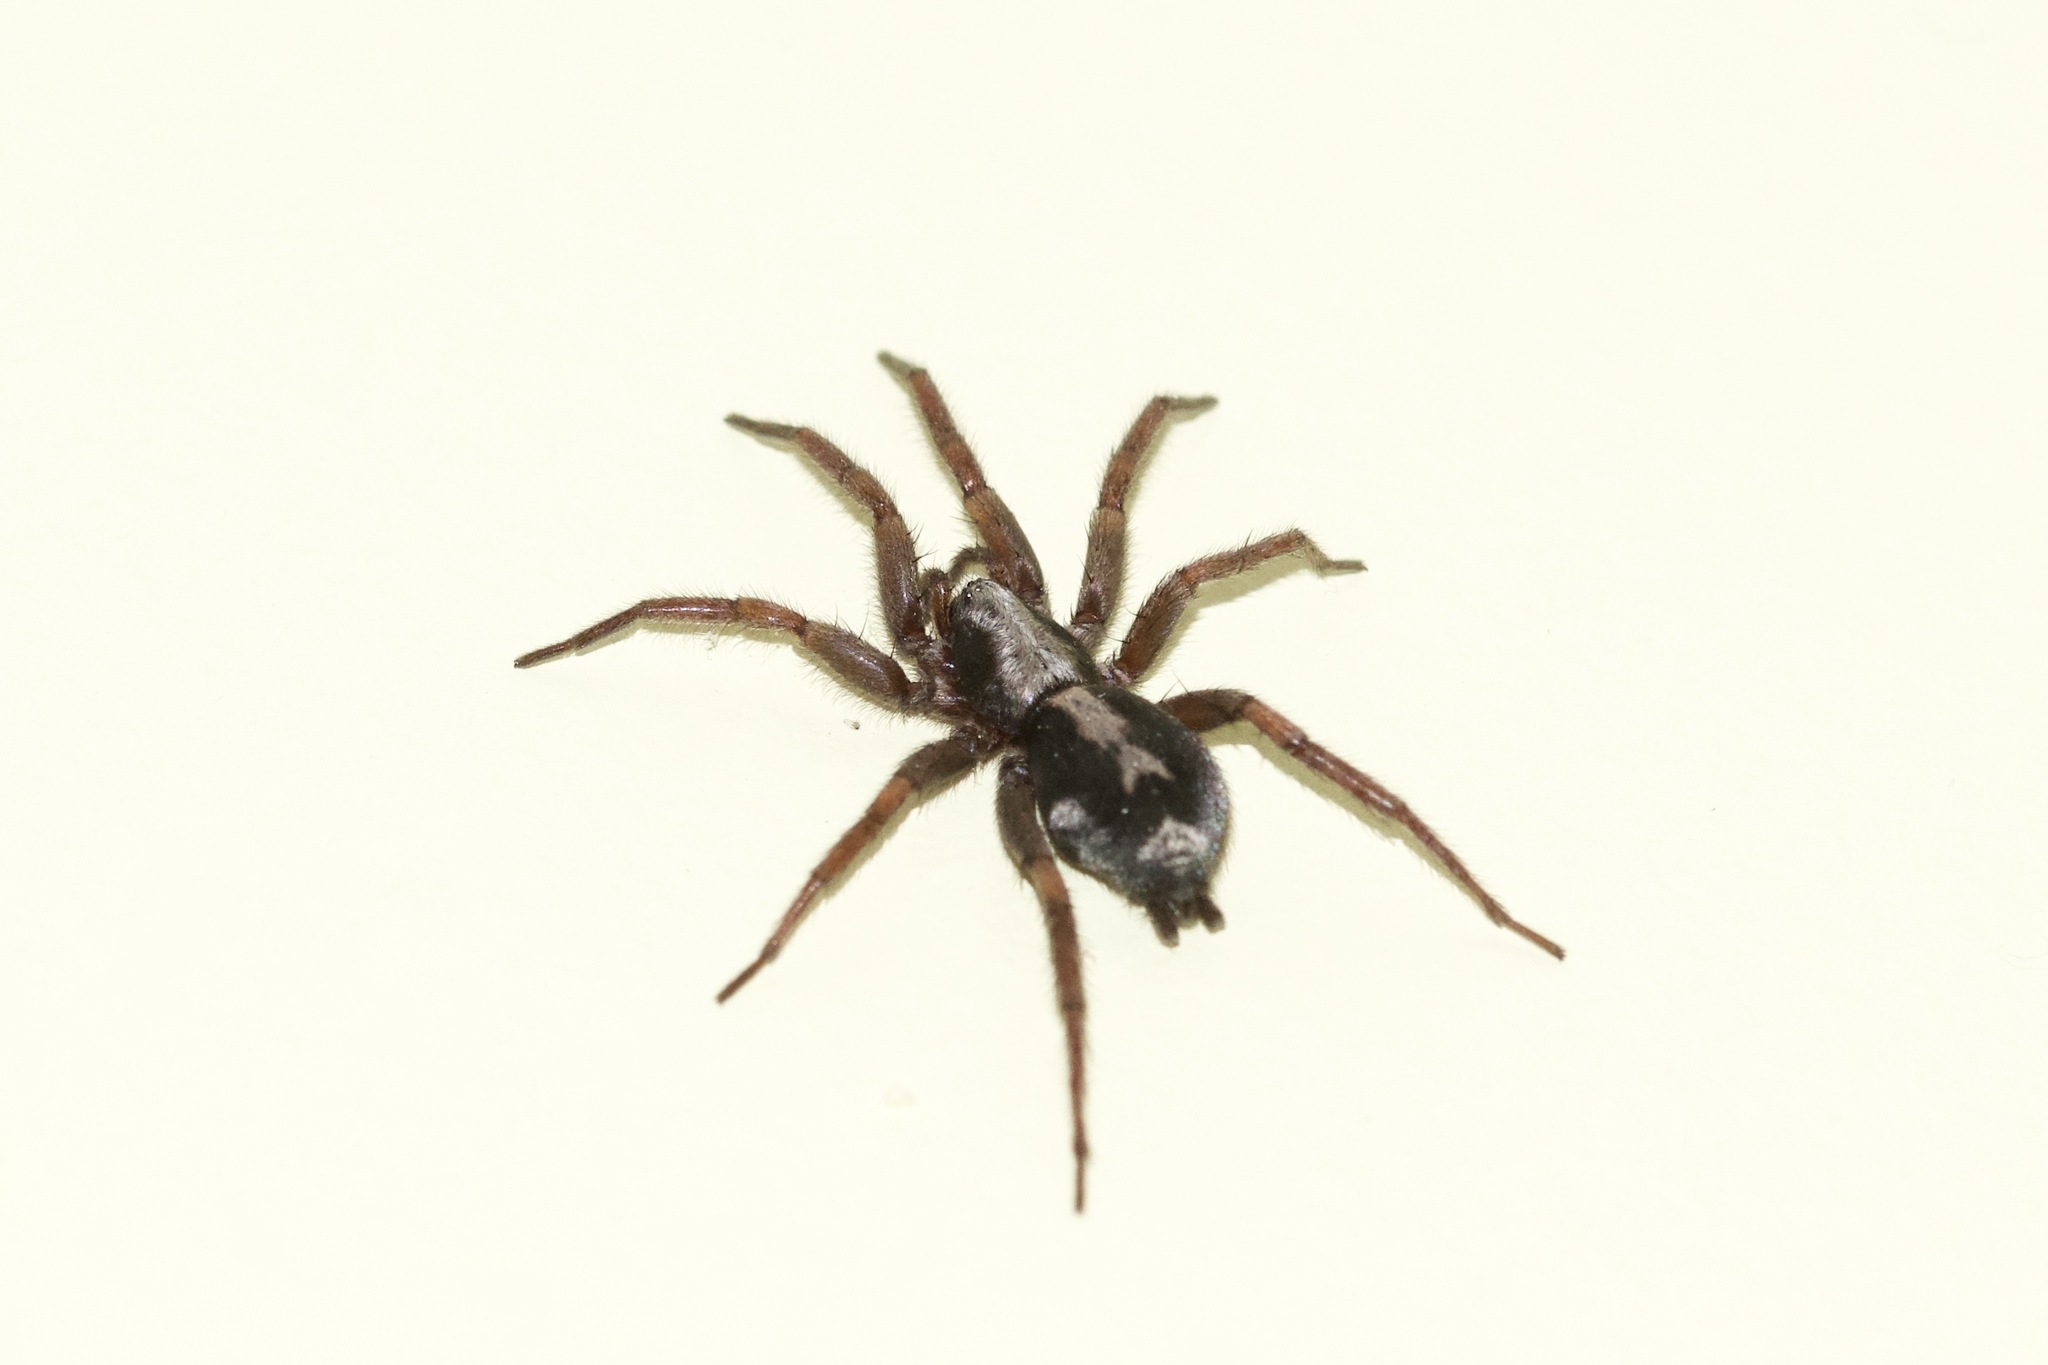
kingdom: Animalia
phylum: Arthropoda
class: Arachnida
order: Araneae
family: Gnaphosidae
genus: Herpyllus
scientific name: Herpyllus ecclesiasticus
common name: Eastern parson spider
